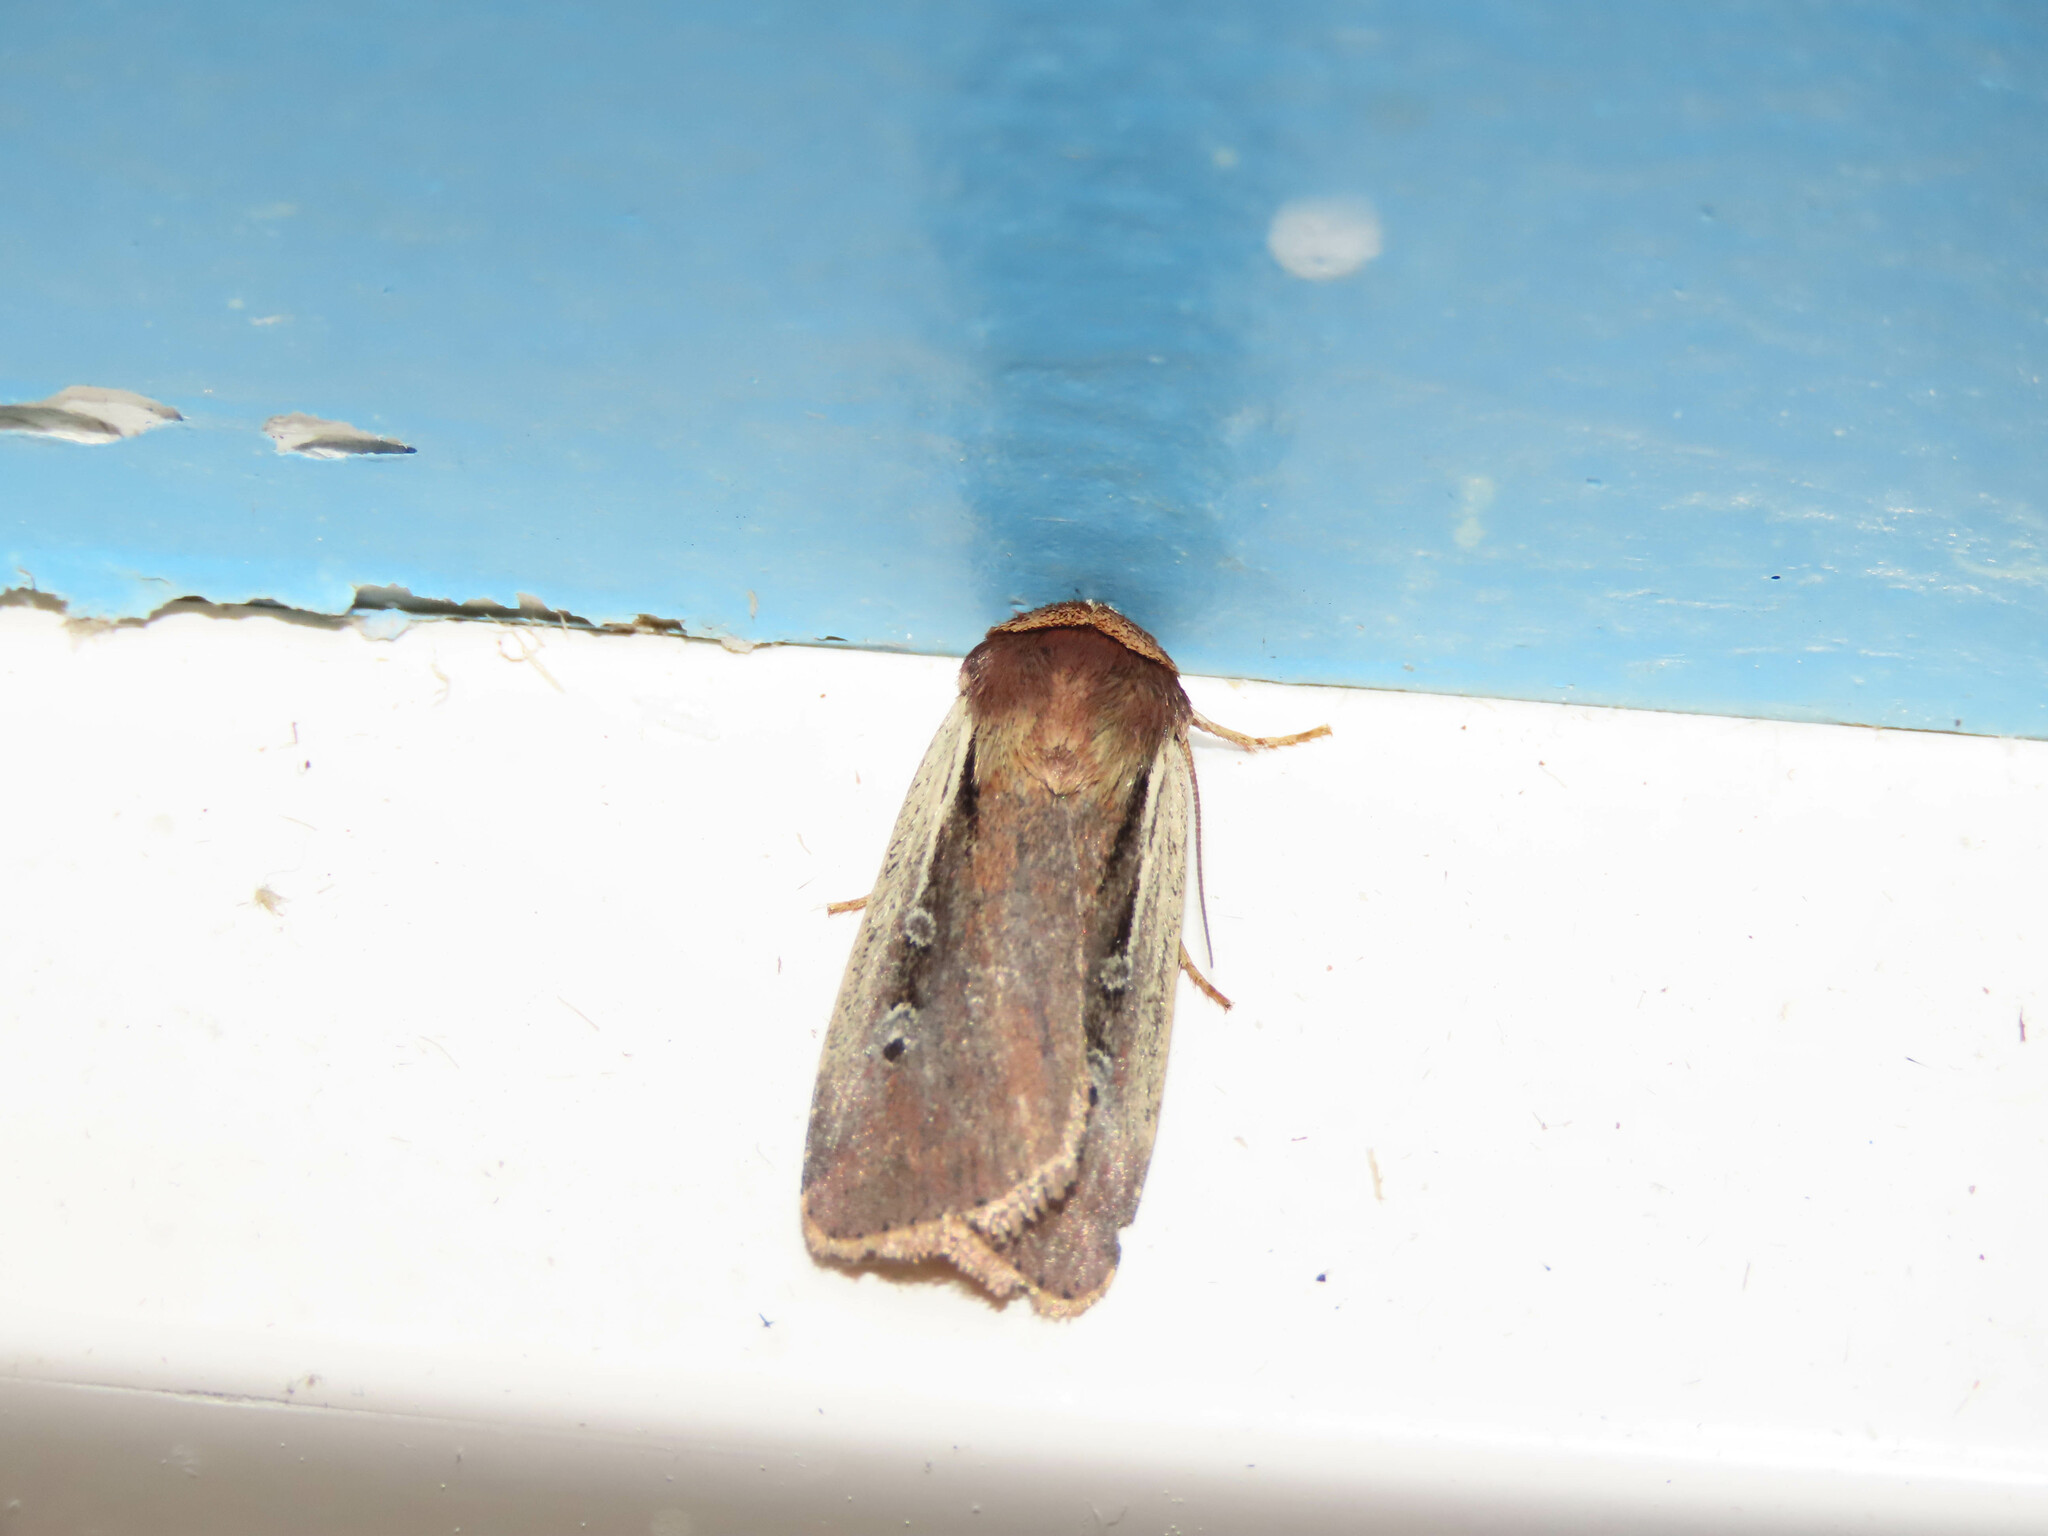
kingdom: Animalia
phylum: Arthropoda
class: Insecta
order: Lepidoptera
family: Noctuidae
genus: Ochropleura
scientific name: Ochropleura implecta
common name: Flame-shouldered dart
